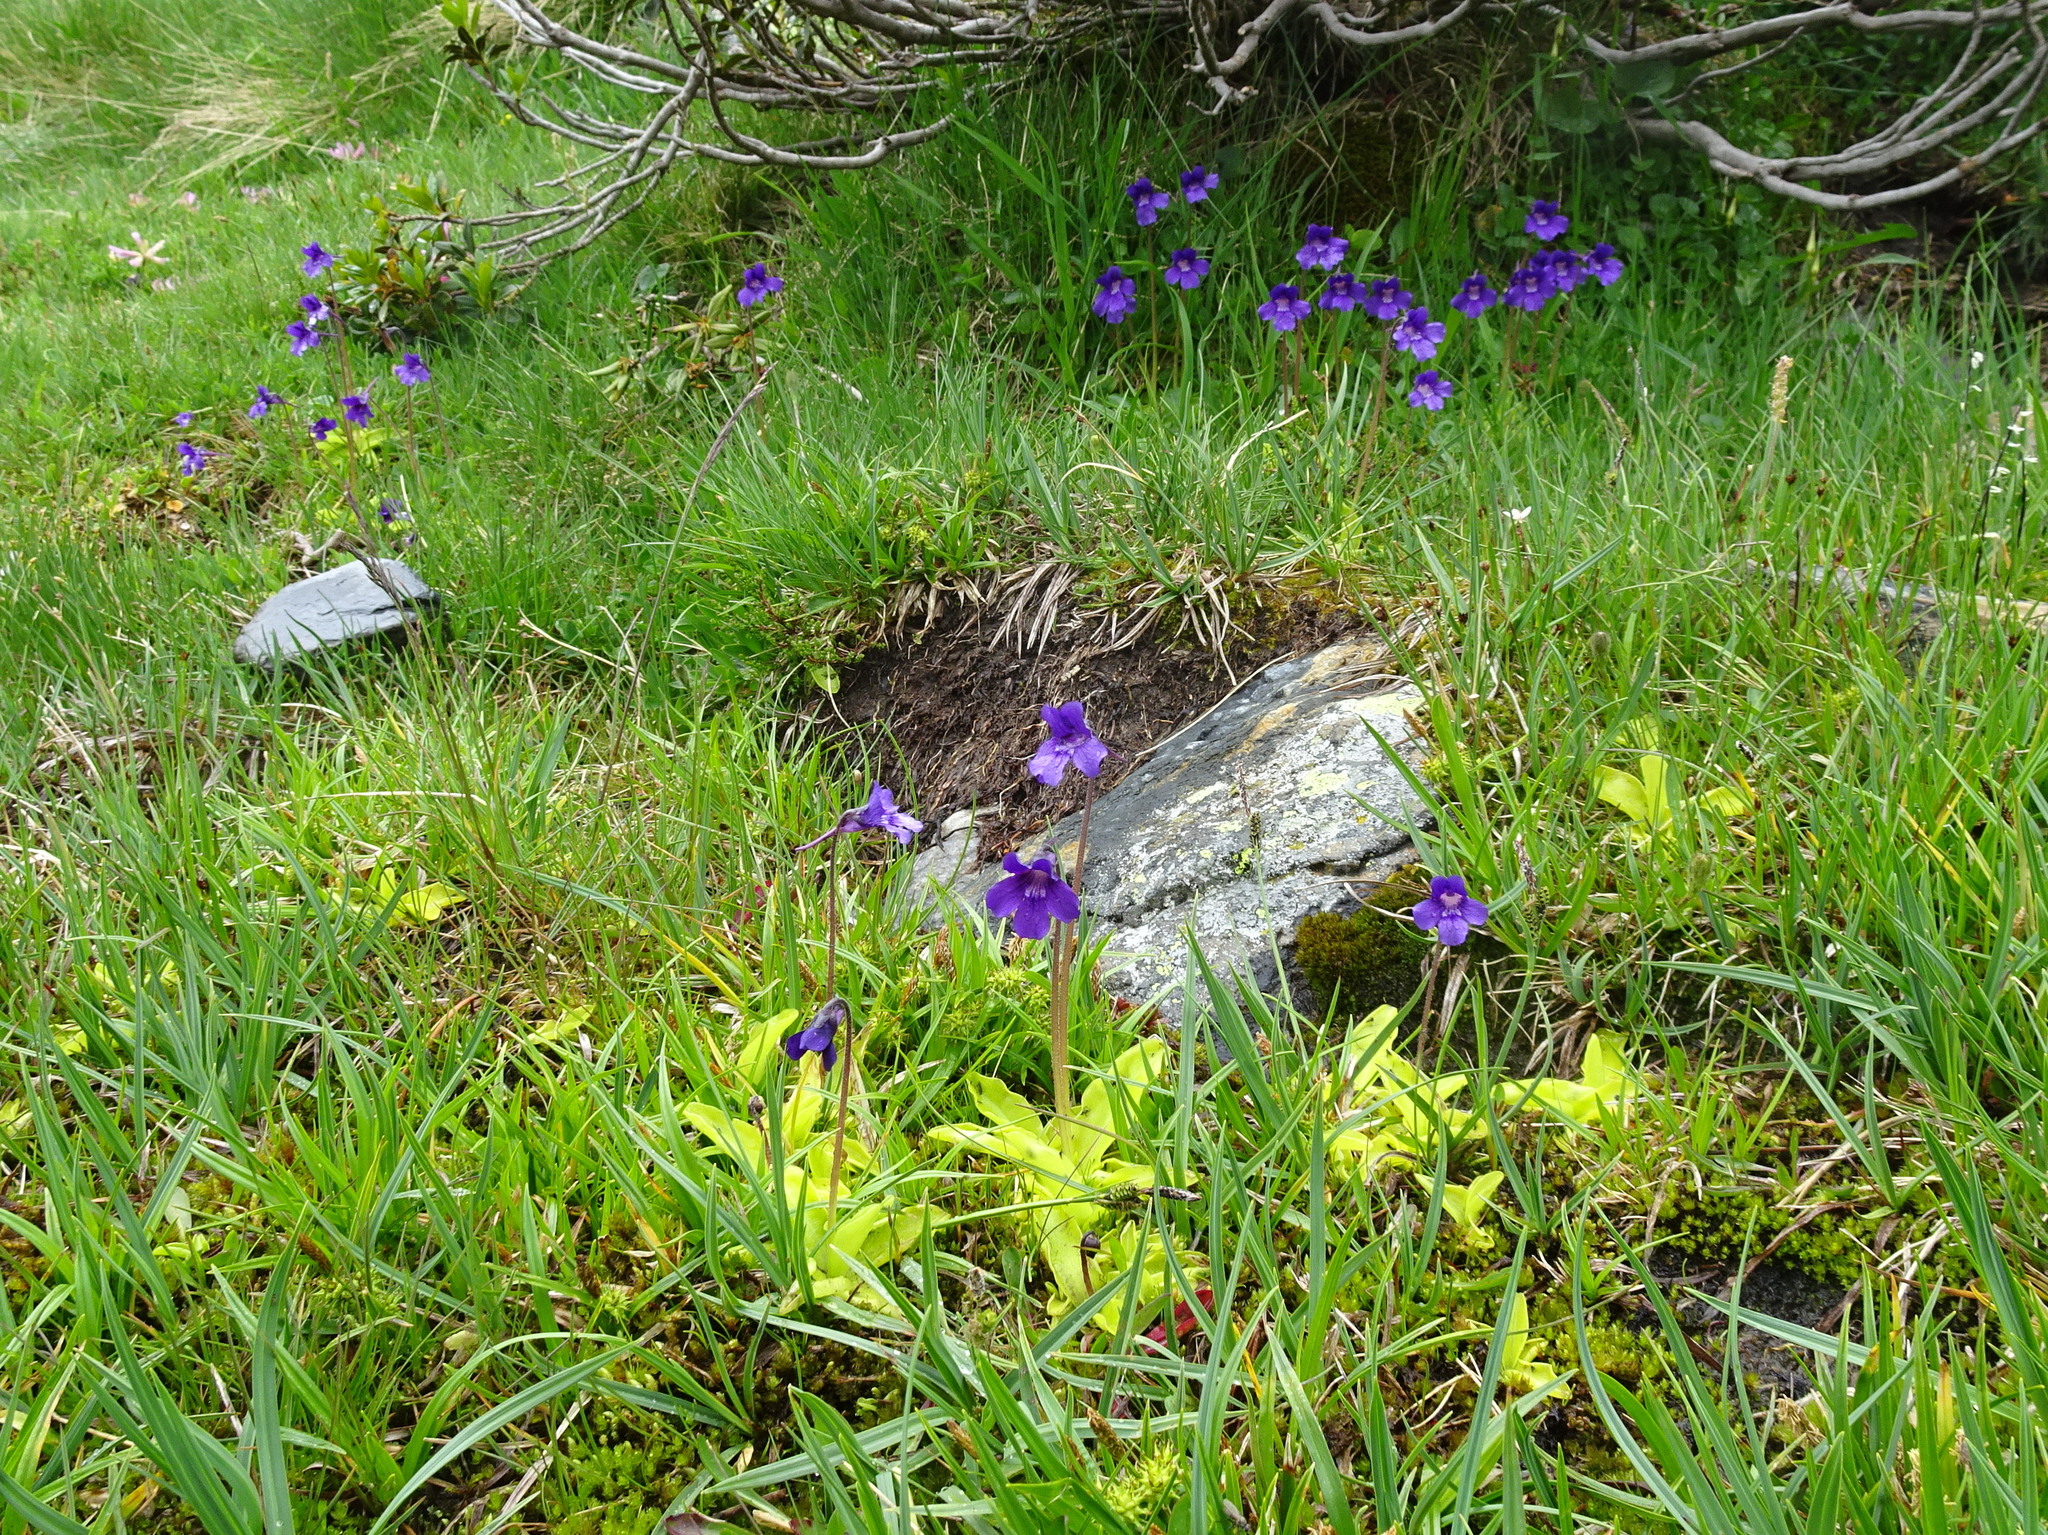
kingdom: Plantae
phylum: Tracheophyta
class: Magnoliopsida
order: Lamiales
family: Lentibulariaceae
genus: Pinguicula
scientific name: Pinguicula grandiflora
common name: Large-flowered butterwort
